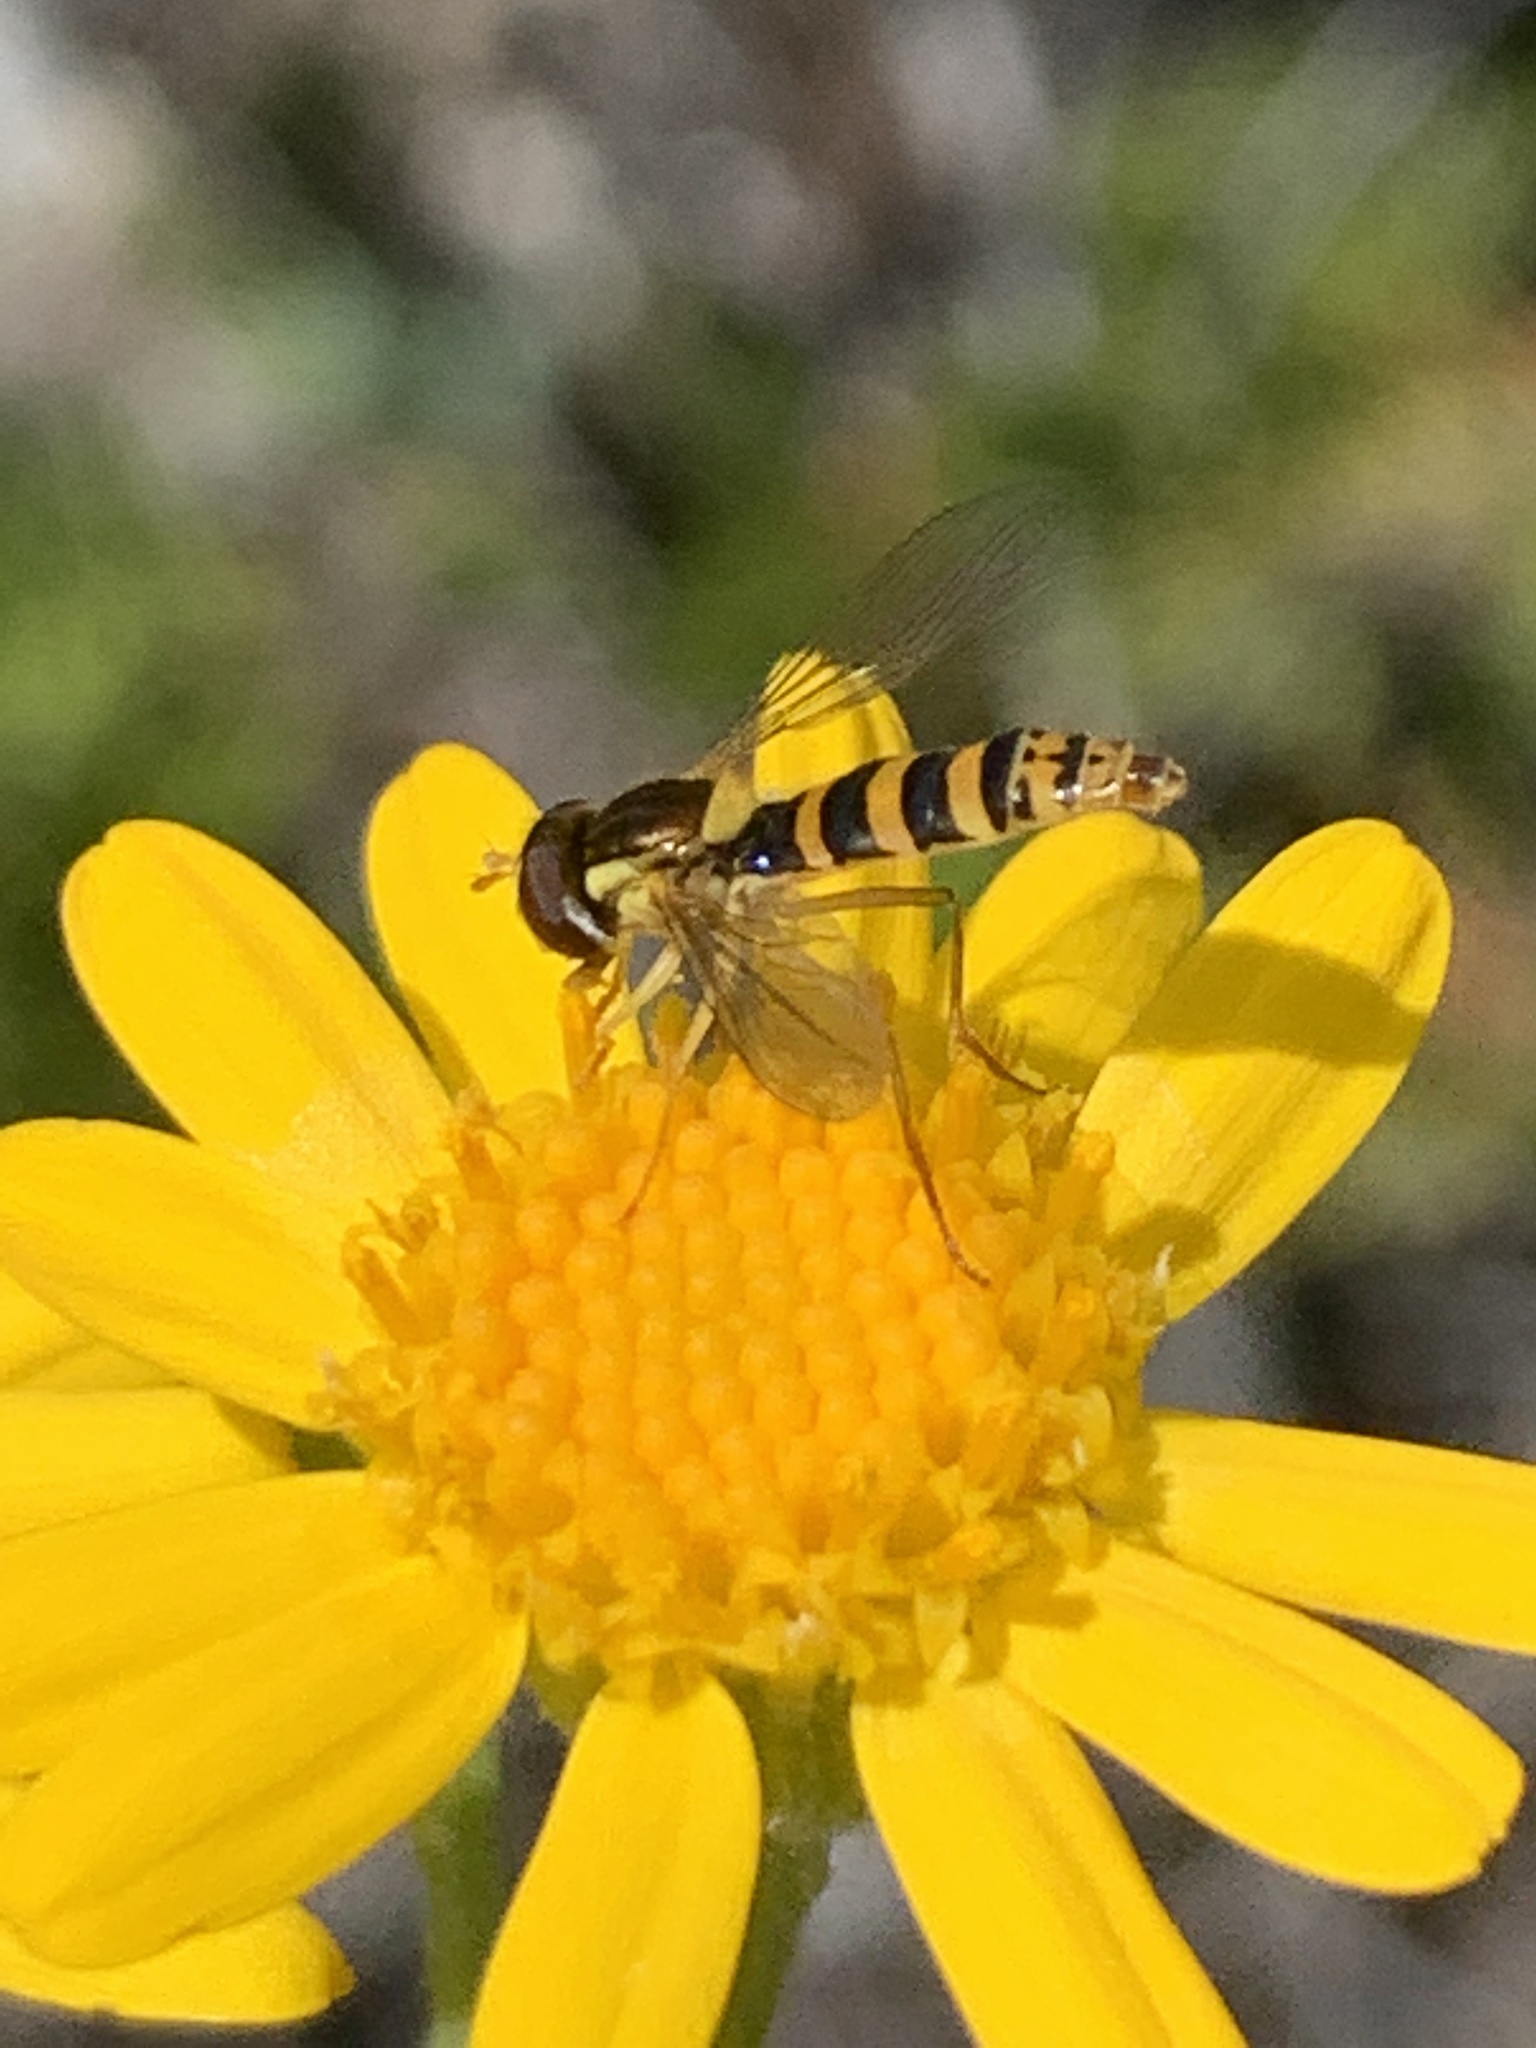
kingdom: Animalia
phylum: Arthropoda
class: Insecta
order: Diptera
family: Syrphidae
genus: Sphaerophoria
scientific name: Sphaerophoria
